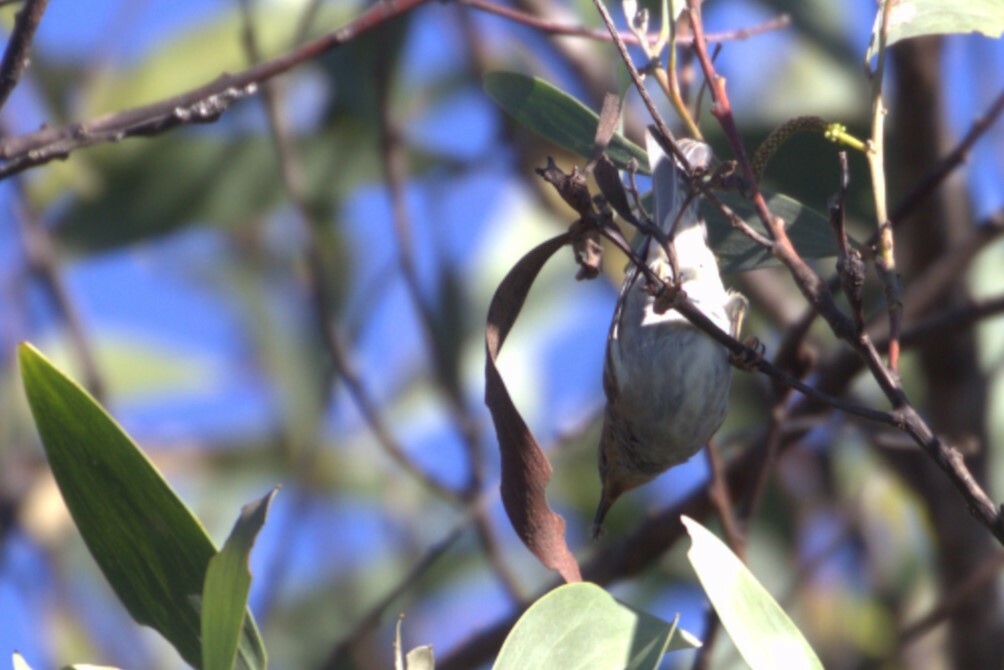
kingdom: Animalia
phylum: Chordata
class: Aves
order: Passeriformes
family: Meliphagidae
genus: Myzomela
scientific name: Myzomela sanguinolenta
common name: Scarlet myzomela
